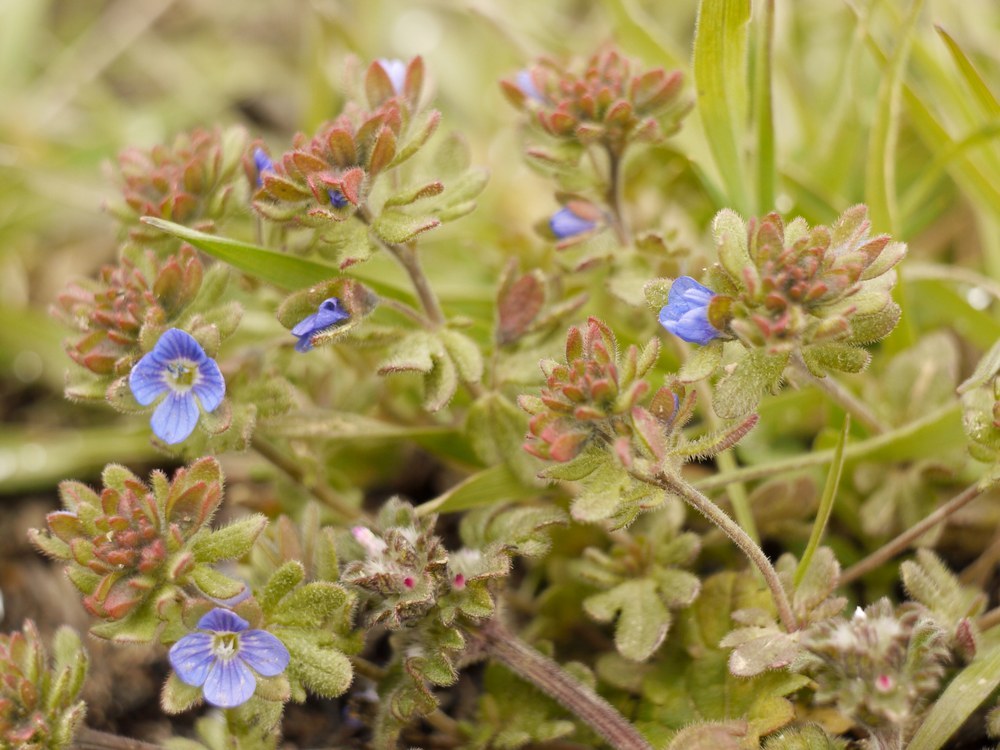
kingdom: Plantae
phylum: Tracheophyta
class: Magnoliopsida
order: Lamiales
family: Plantaginaceae
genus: Veronica
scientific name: Veronica triphyllos
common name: Fingered speedwell
